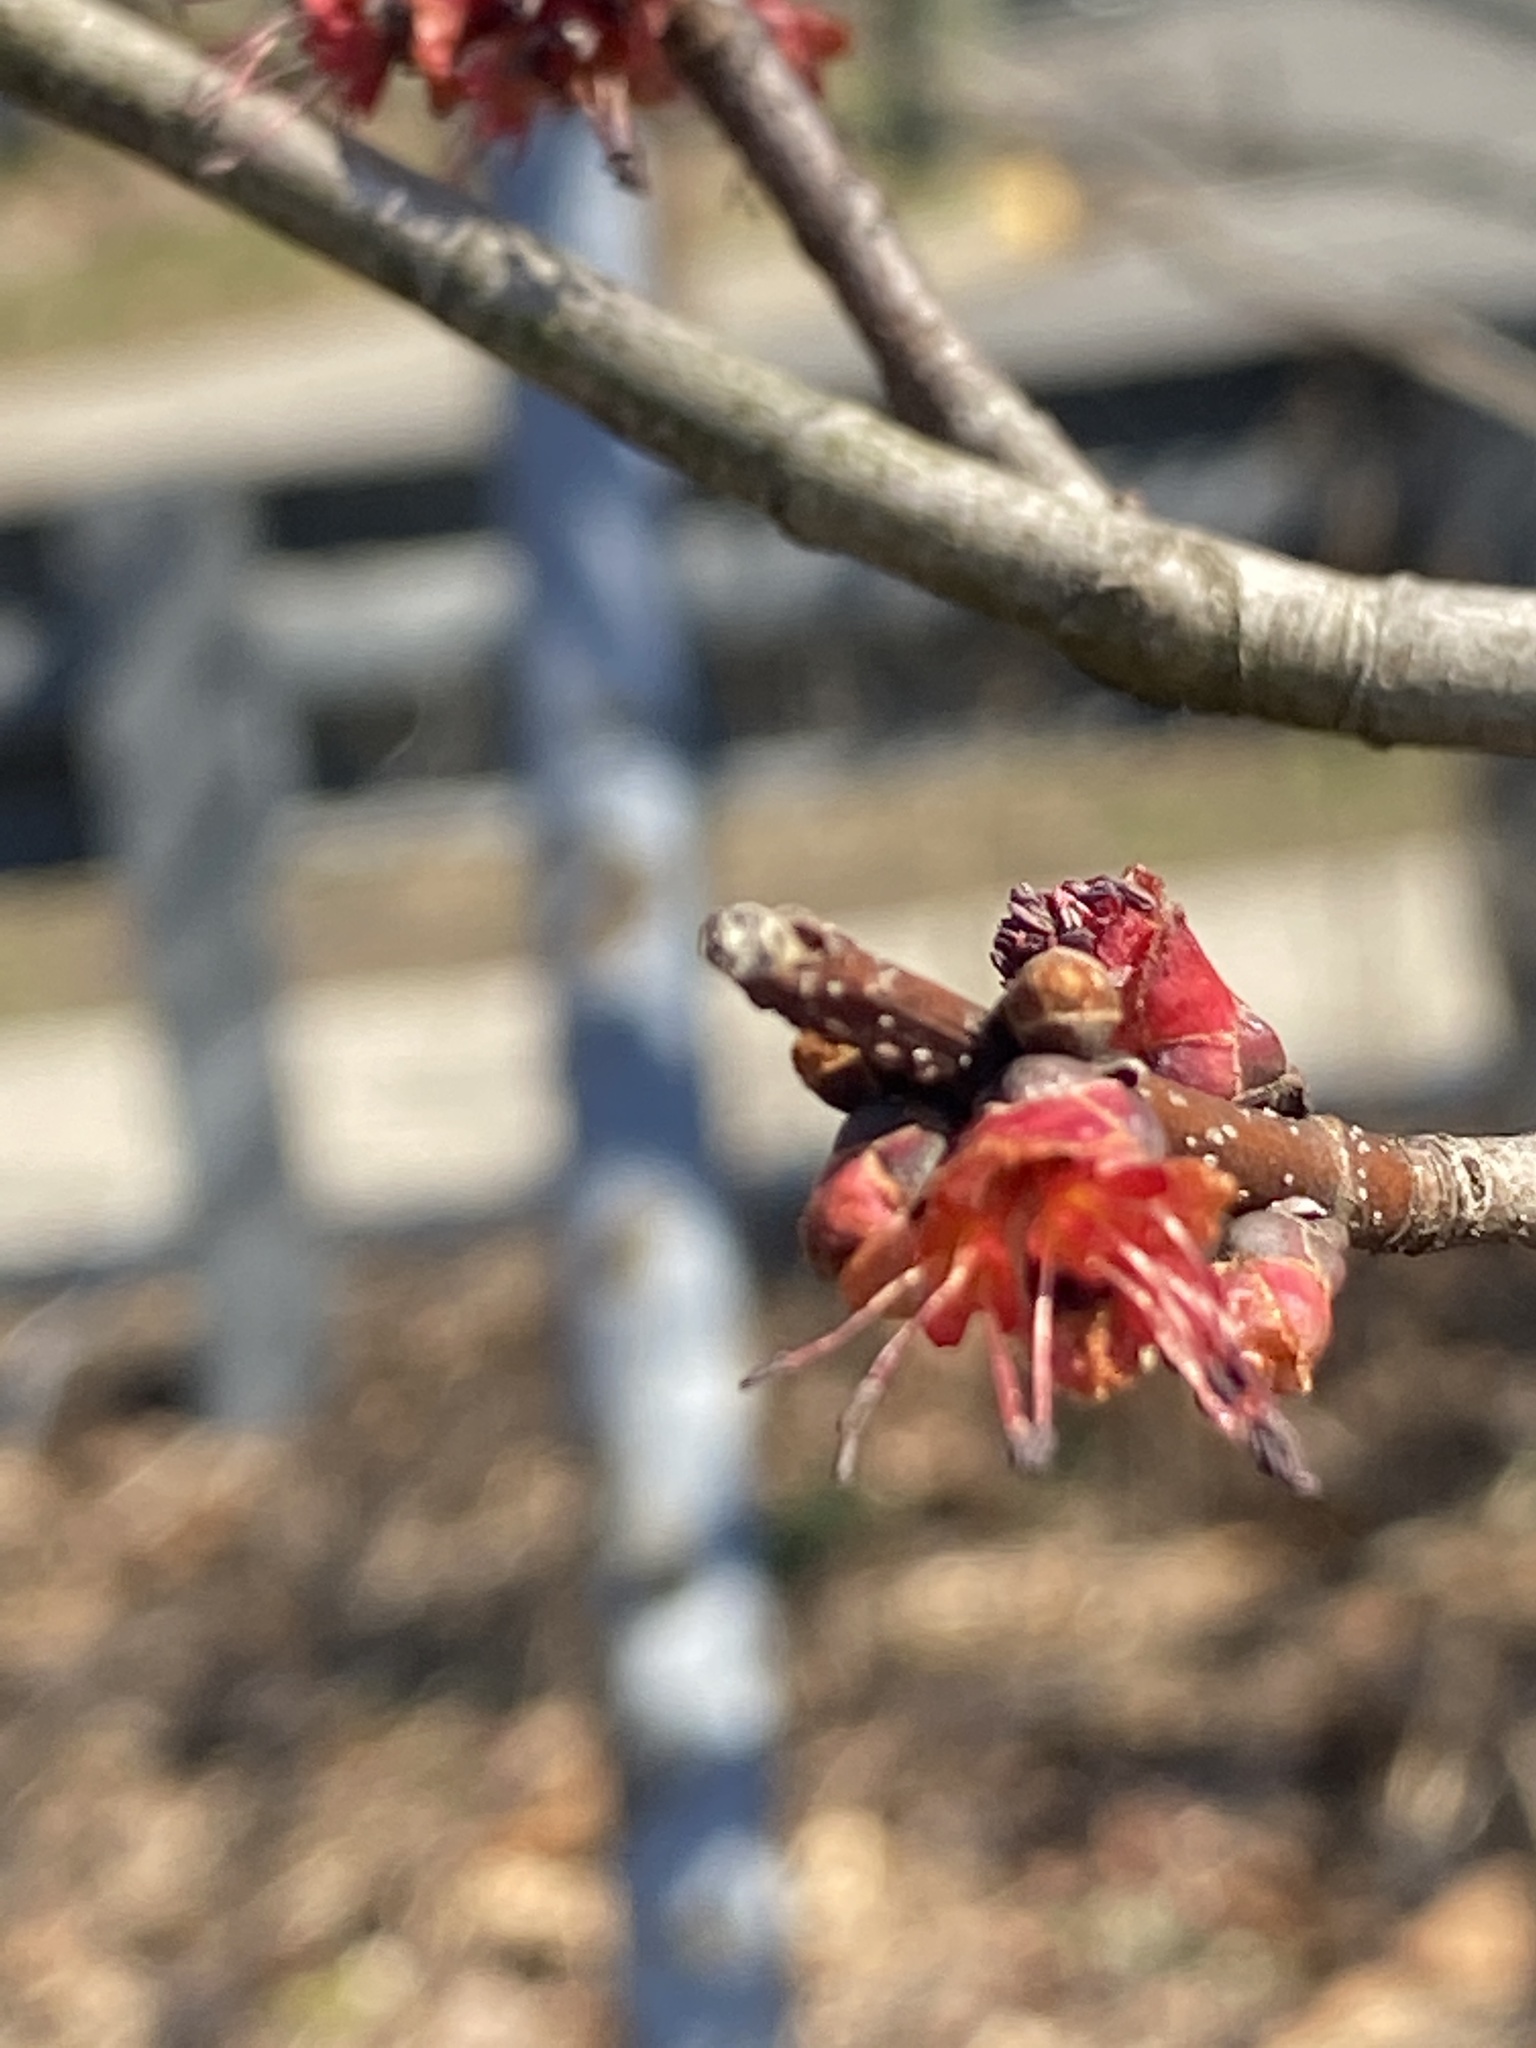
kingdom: Plantae
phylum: Tracheophyta
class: Magnoliopsida
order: Sapindales
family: Sapindaceae
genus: Acer
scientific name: Acer rubrum
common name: Red maple
